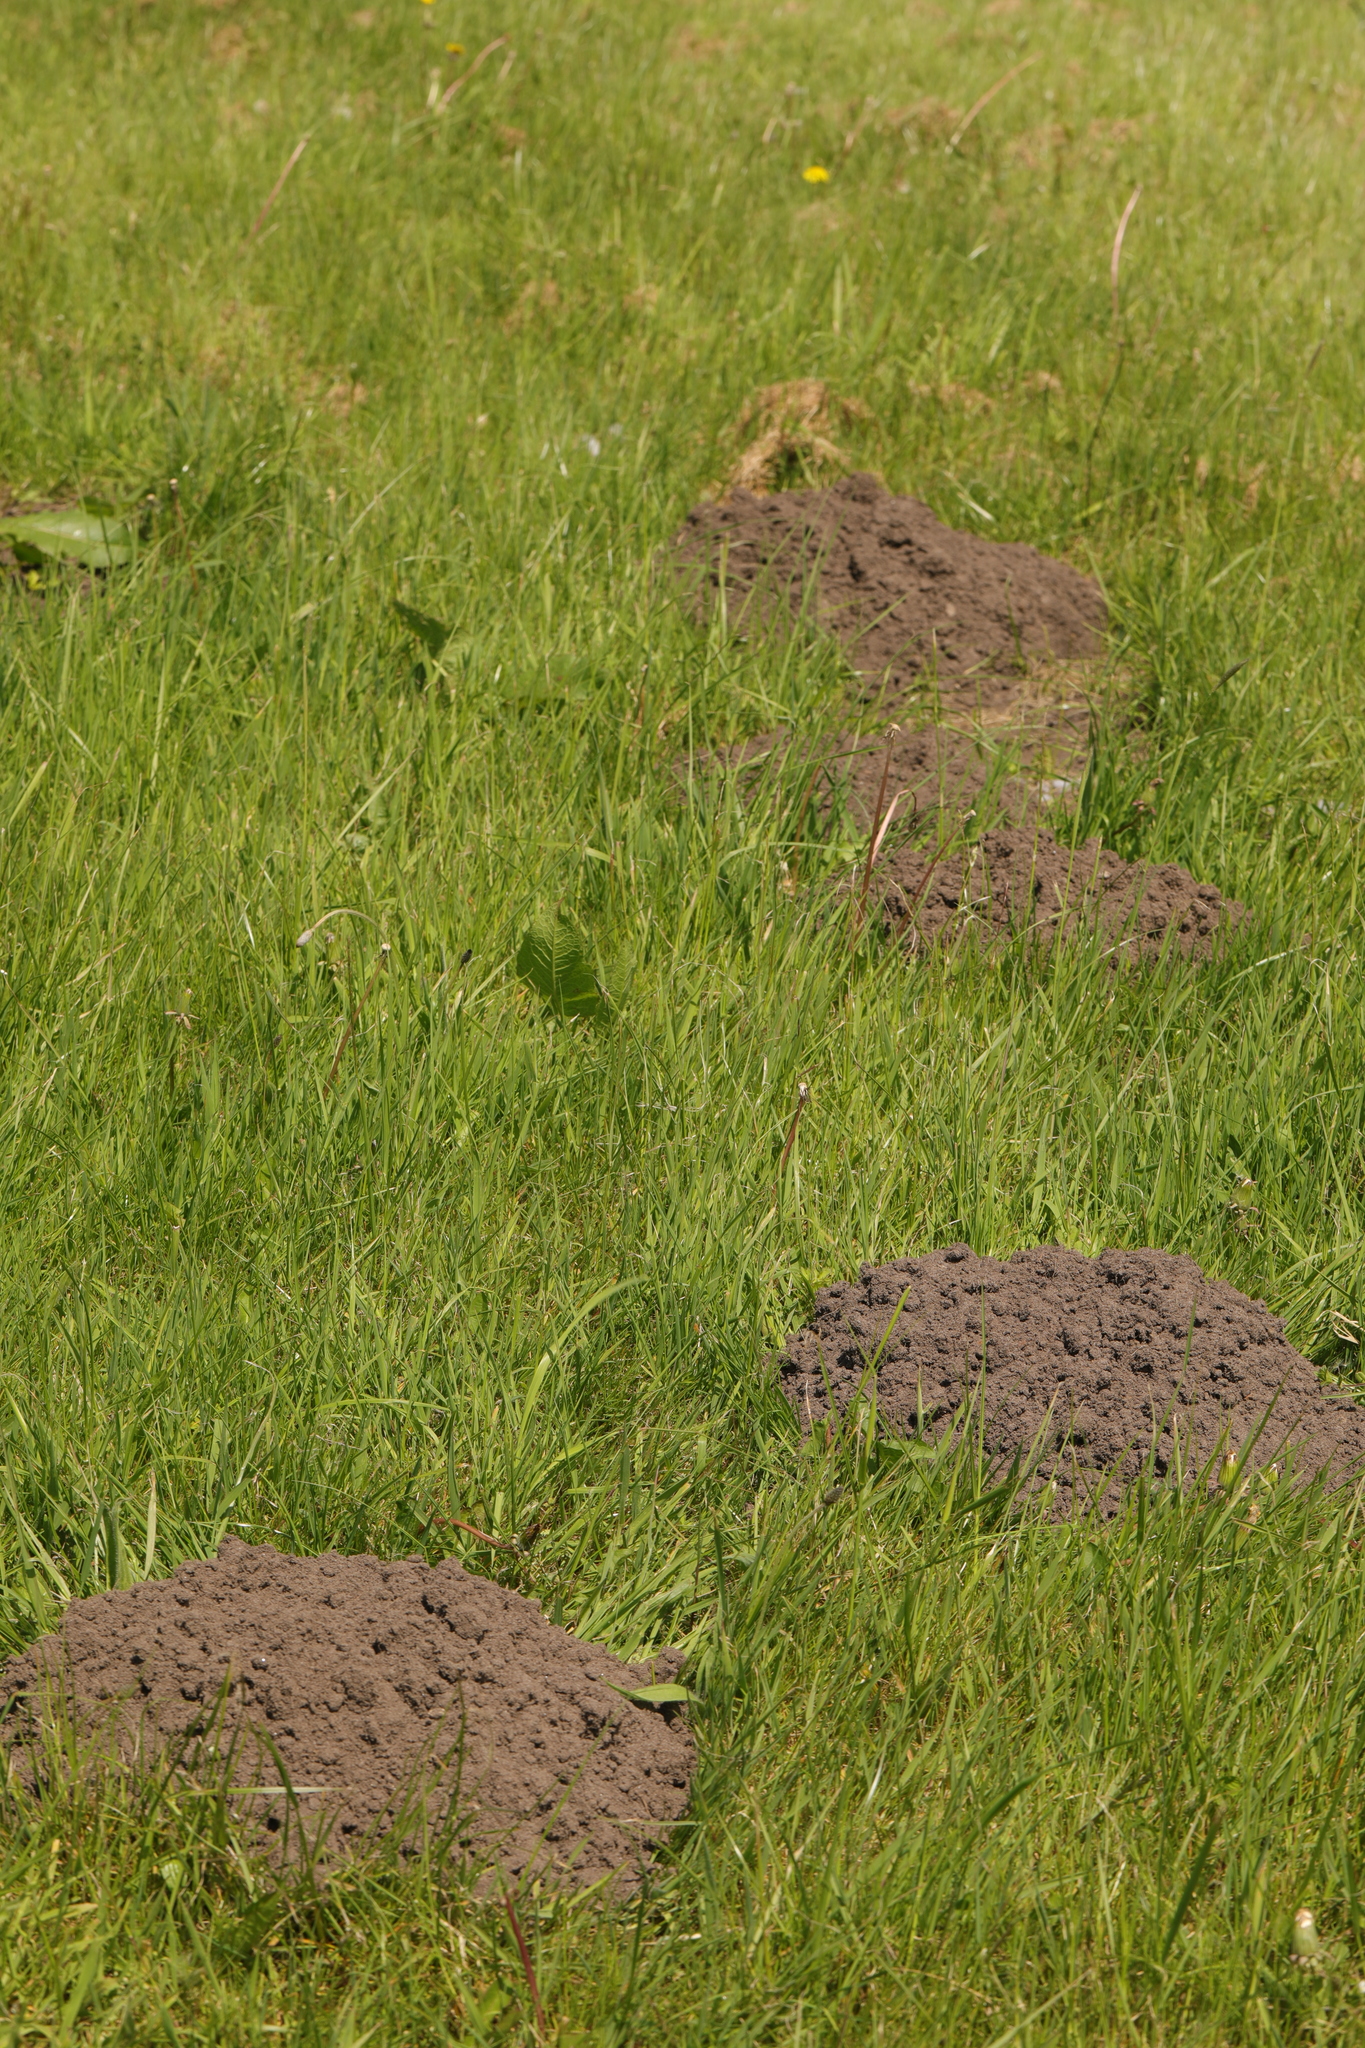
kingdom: Animalia
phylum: Chordata
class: Mammalia
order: Soricomorpha
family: Talpidae
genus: Talpa
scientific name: Talpa europaea
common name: European mole
